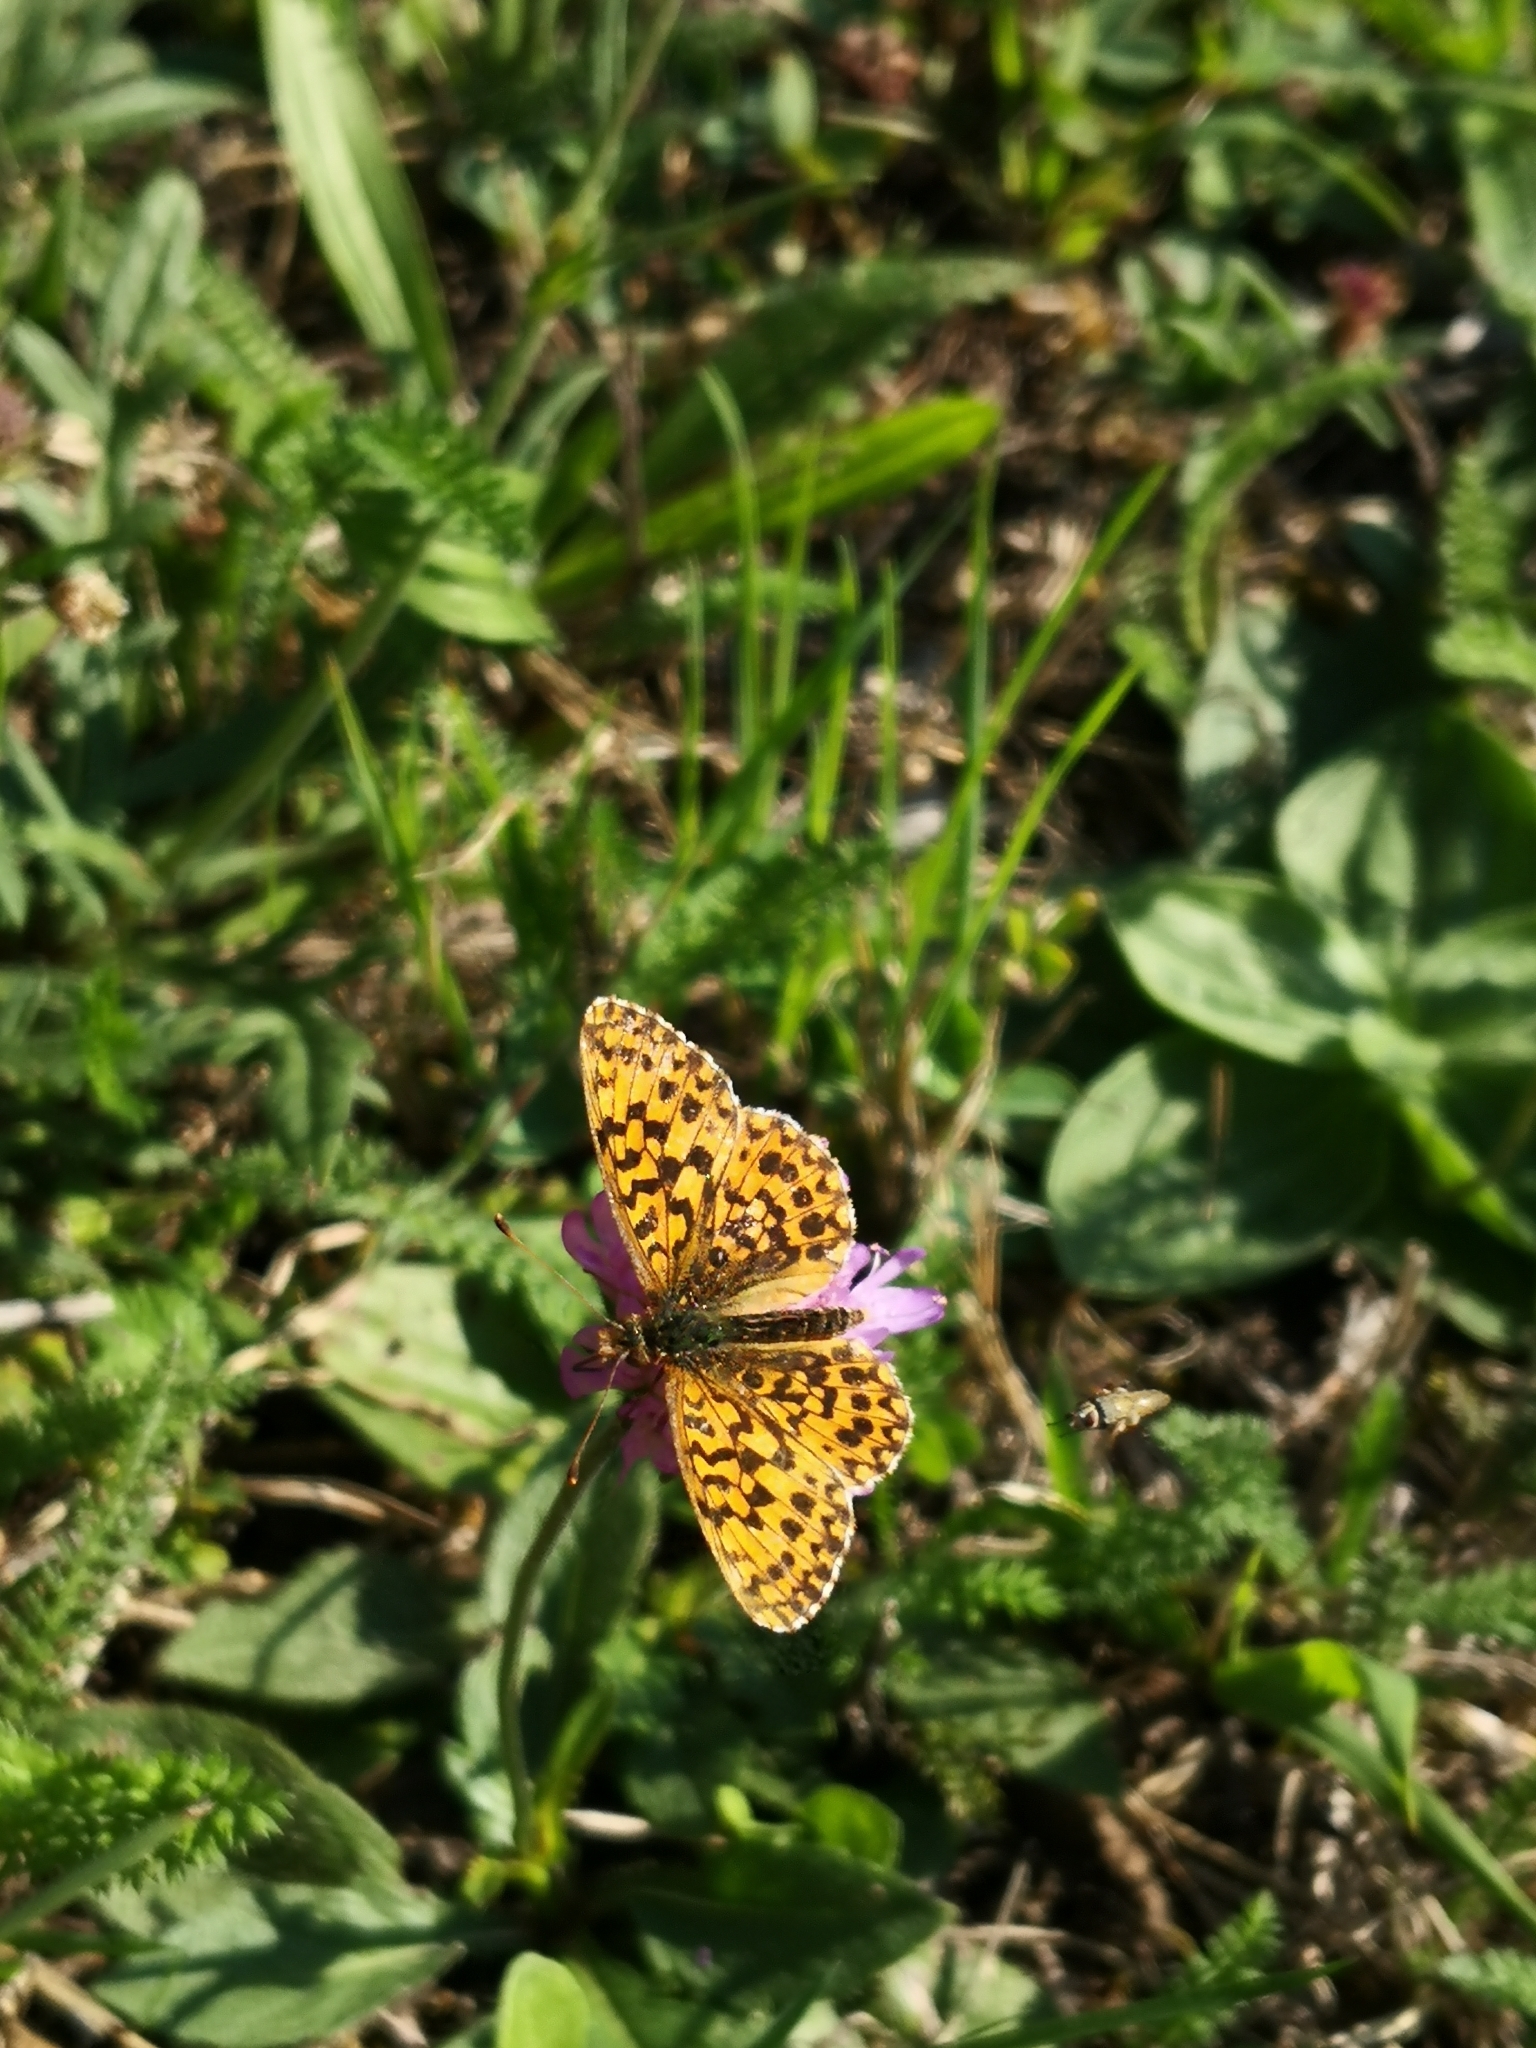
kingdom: Animalia
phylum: Arthropoda
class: Insecta
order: Lepidoptera
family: Nymphalidae
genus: Boloria
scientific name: Boloria dia
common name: Weaver's fritillary
